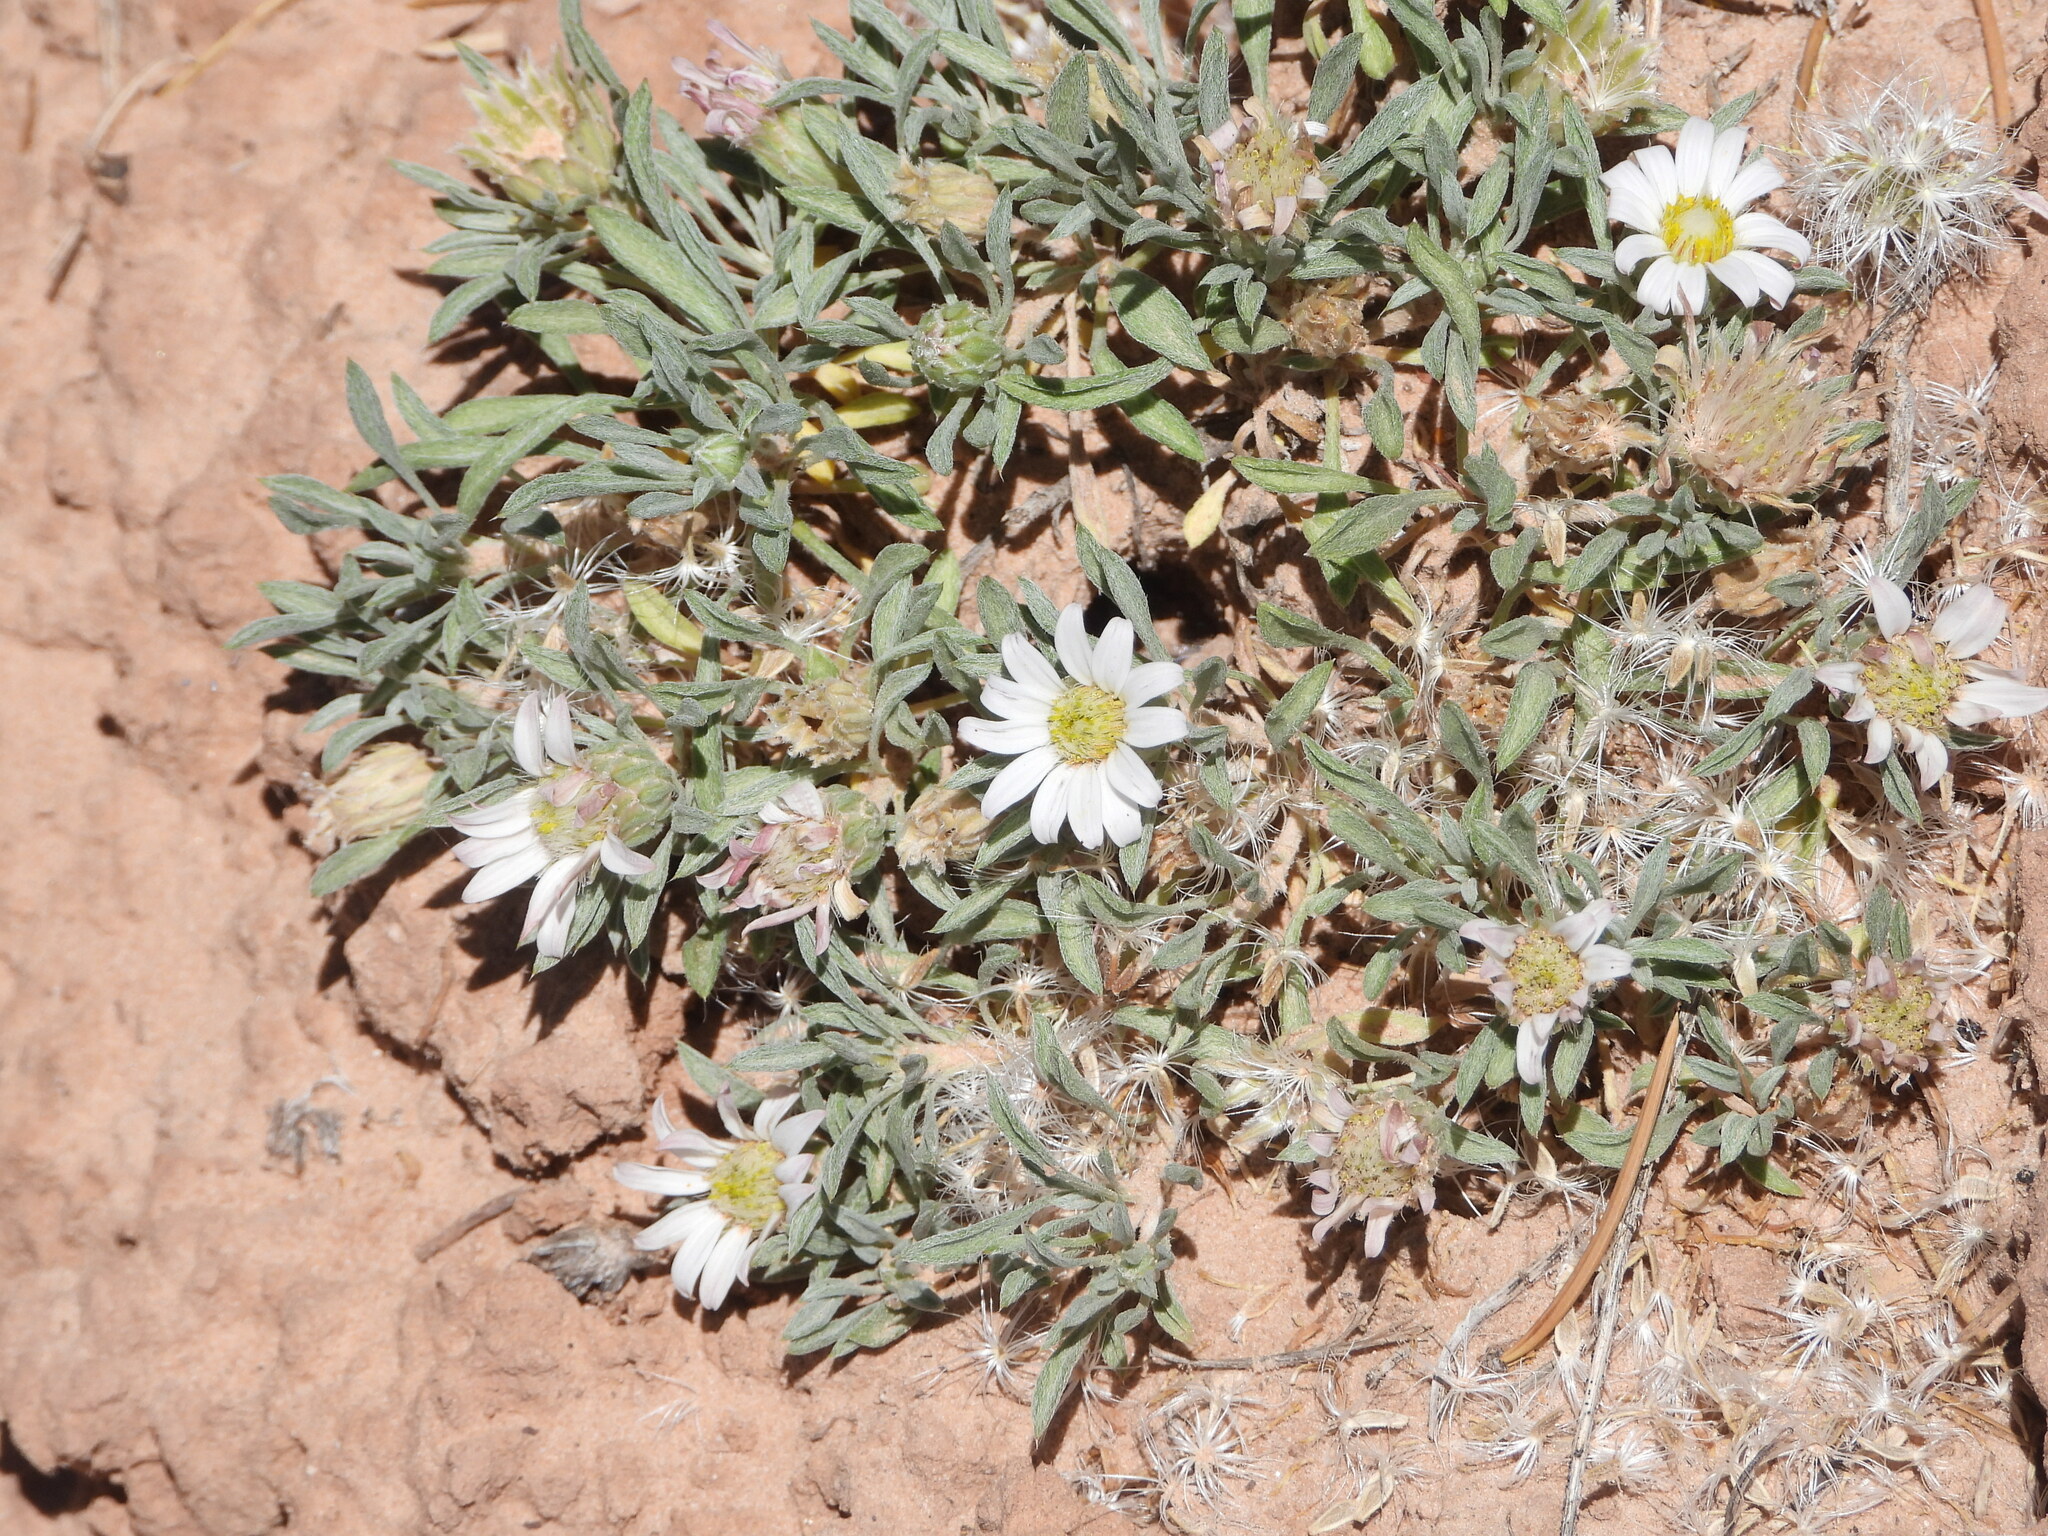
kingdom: Plantae
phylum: Tracheophyta
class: Magnoliopsida
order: Asterales
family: Asteraceae
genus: Townsendia
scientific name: Townsendia incana
